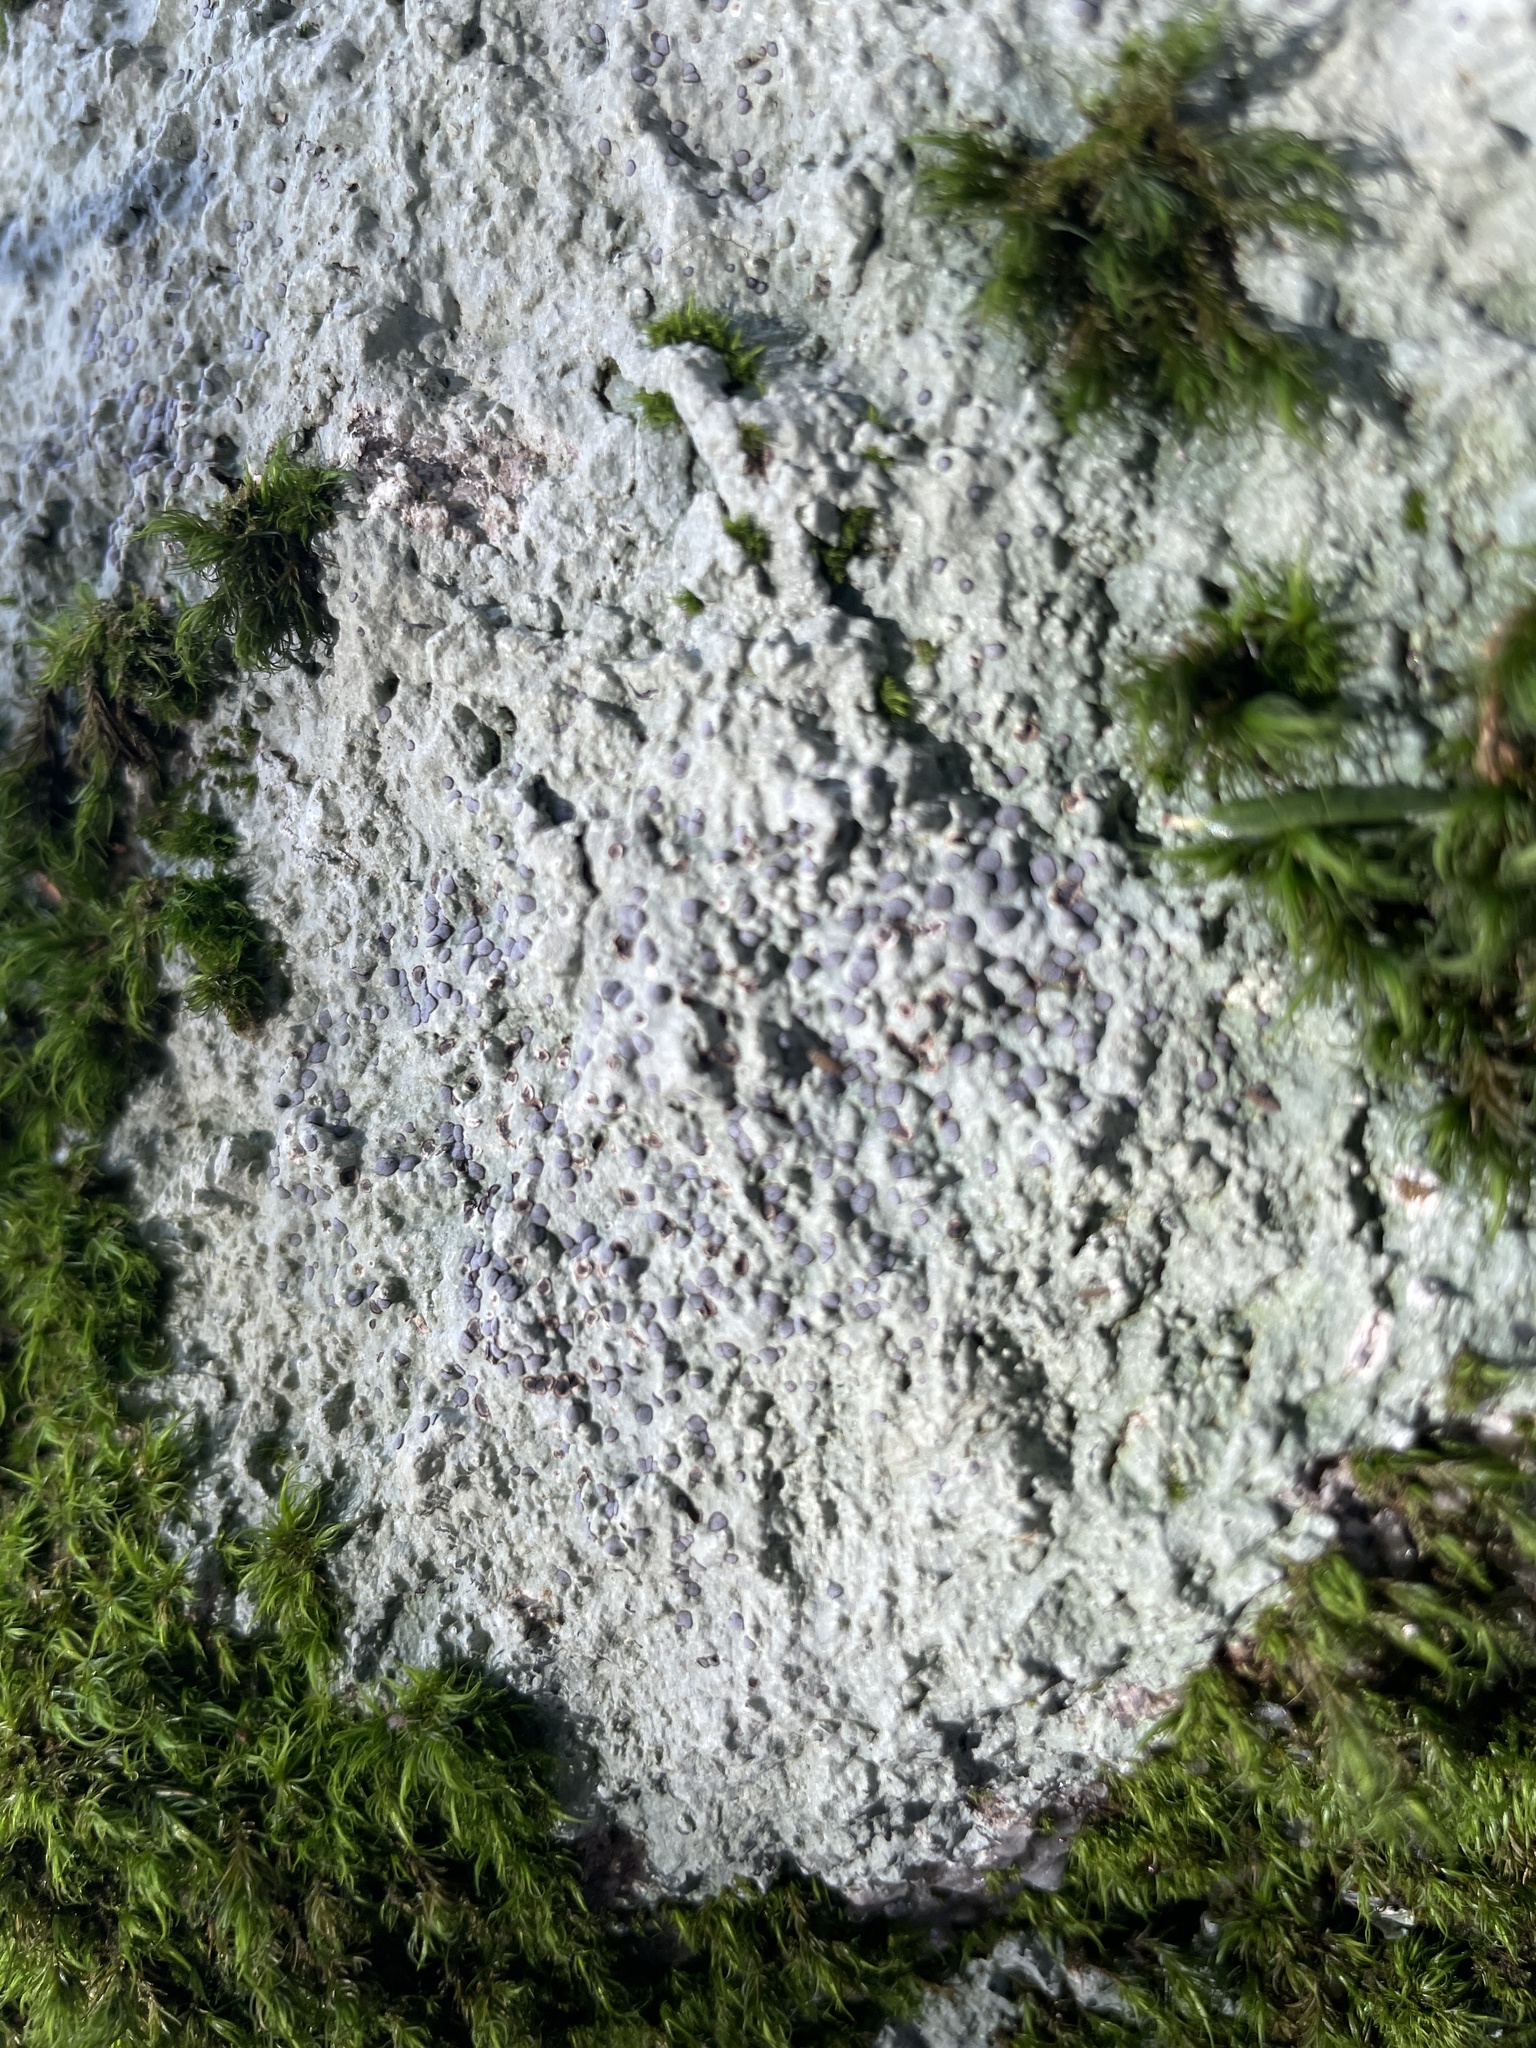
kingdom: Fungi
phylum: Ascomycota
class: Lecanoromycetes
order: Lecideales
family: Lecideaceae
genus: Porpidia
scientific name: Porpidia albocaerulescens
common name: Smokey-eyed boulder lichen
